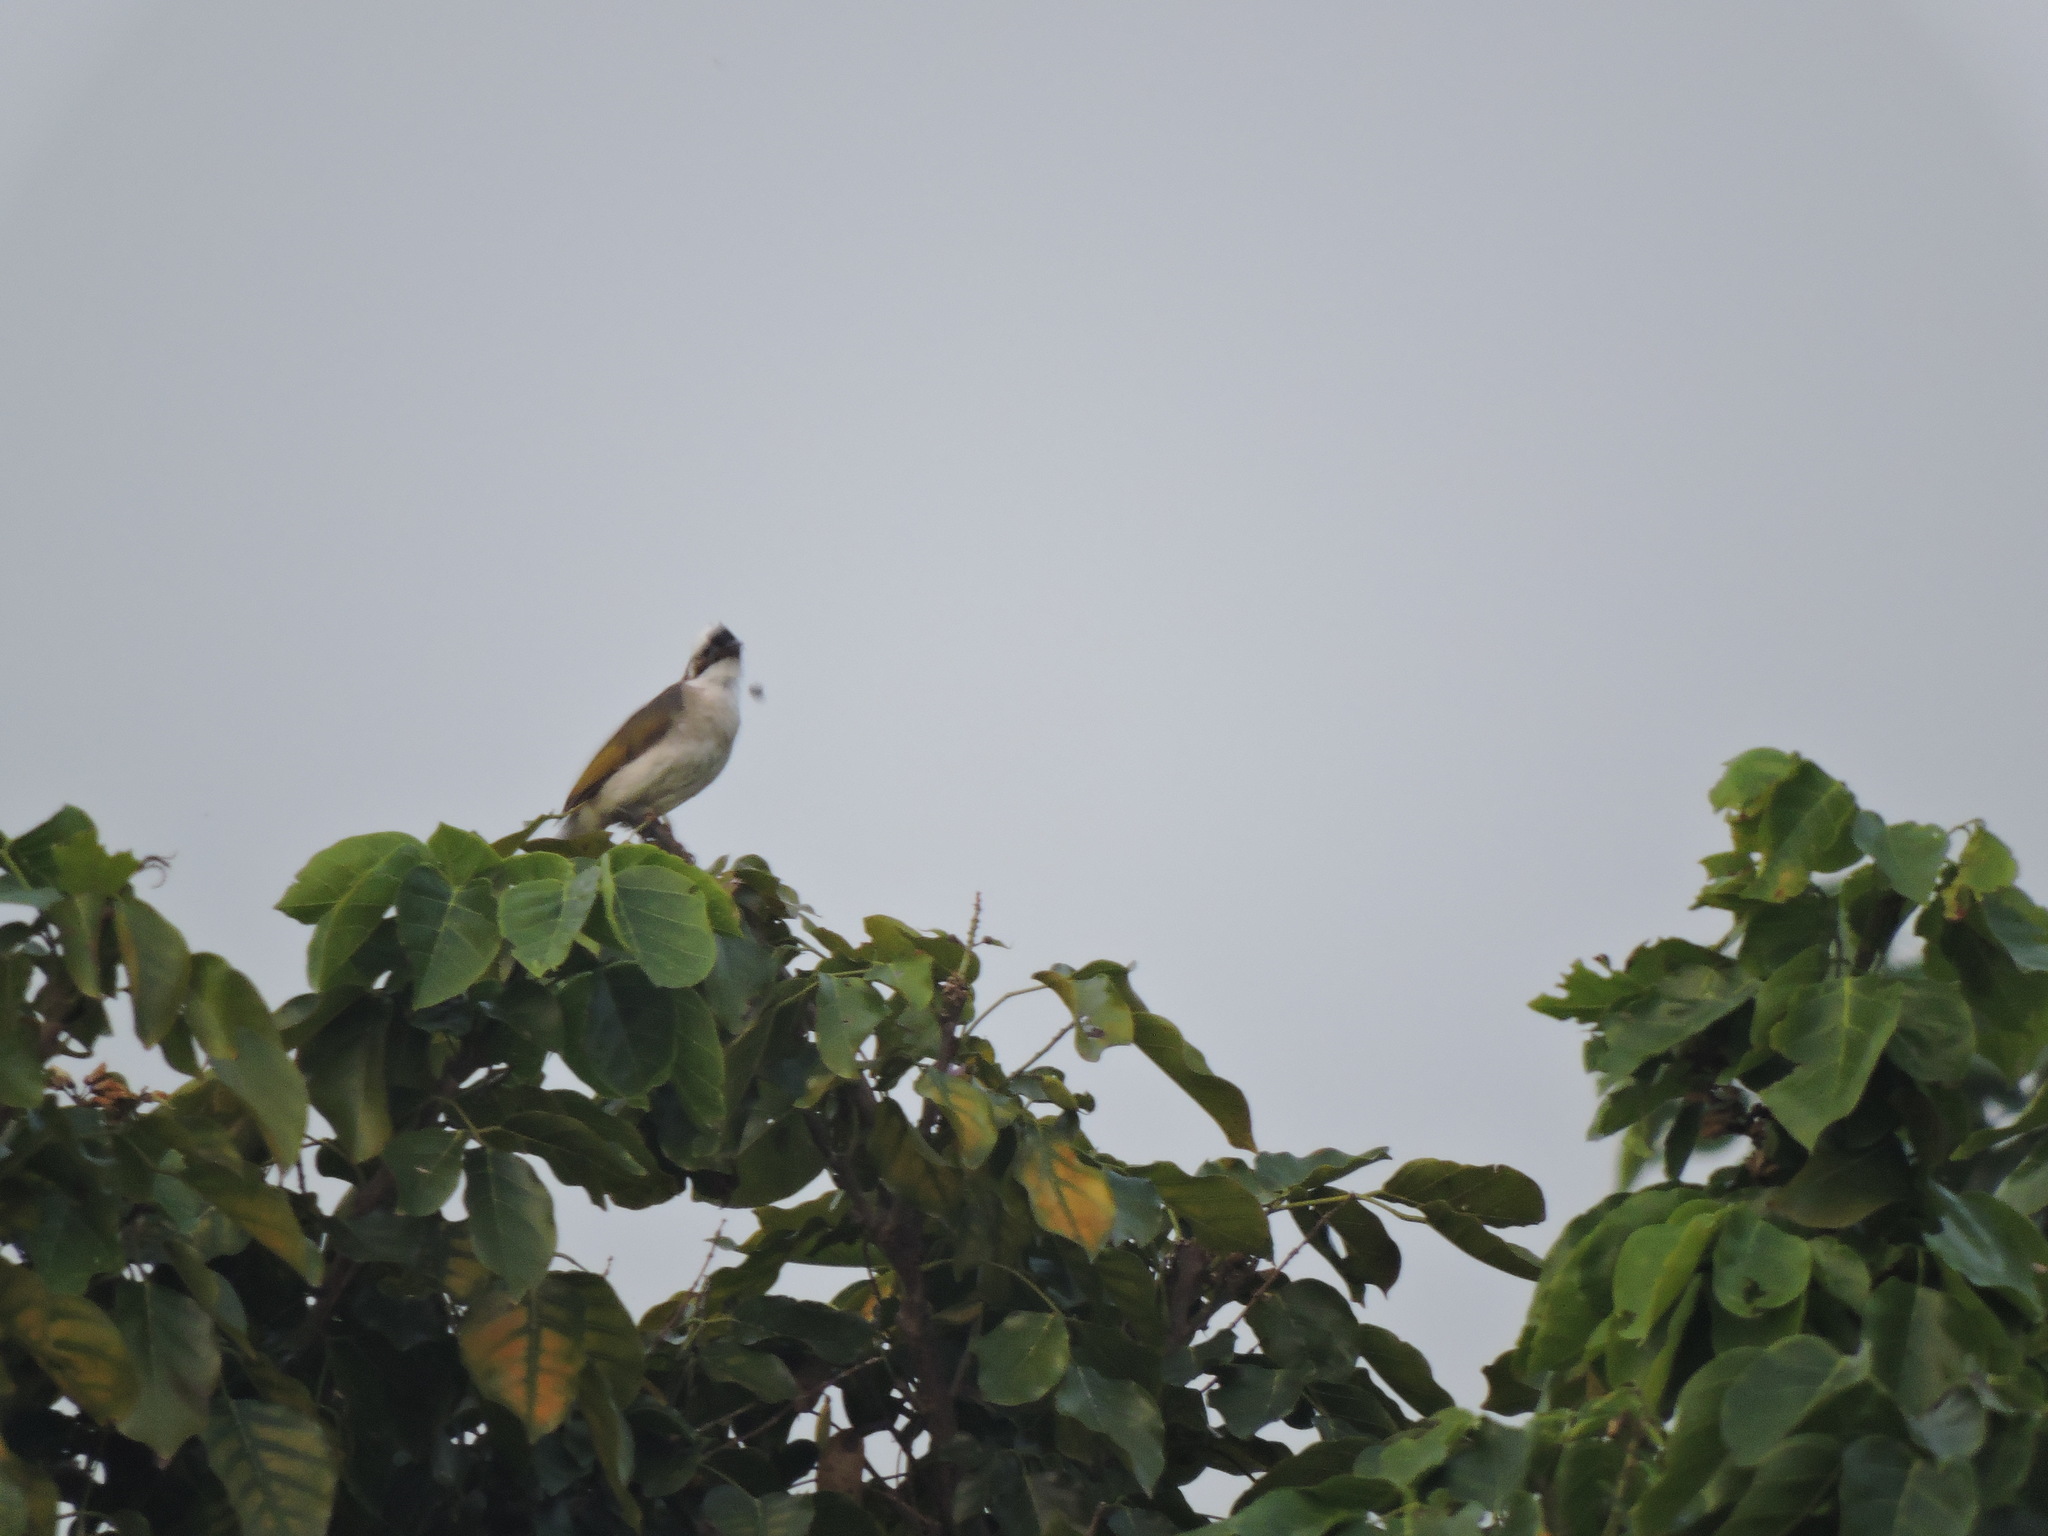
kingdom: Animalia
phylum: Chordata
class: Aves
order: Passeriformes
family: Pycnonotidae
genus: Pycnonotus
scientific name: Pycnonotus sinensis
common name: Light-vented bulbul
